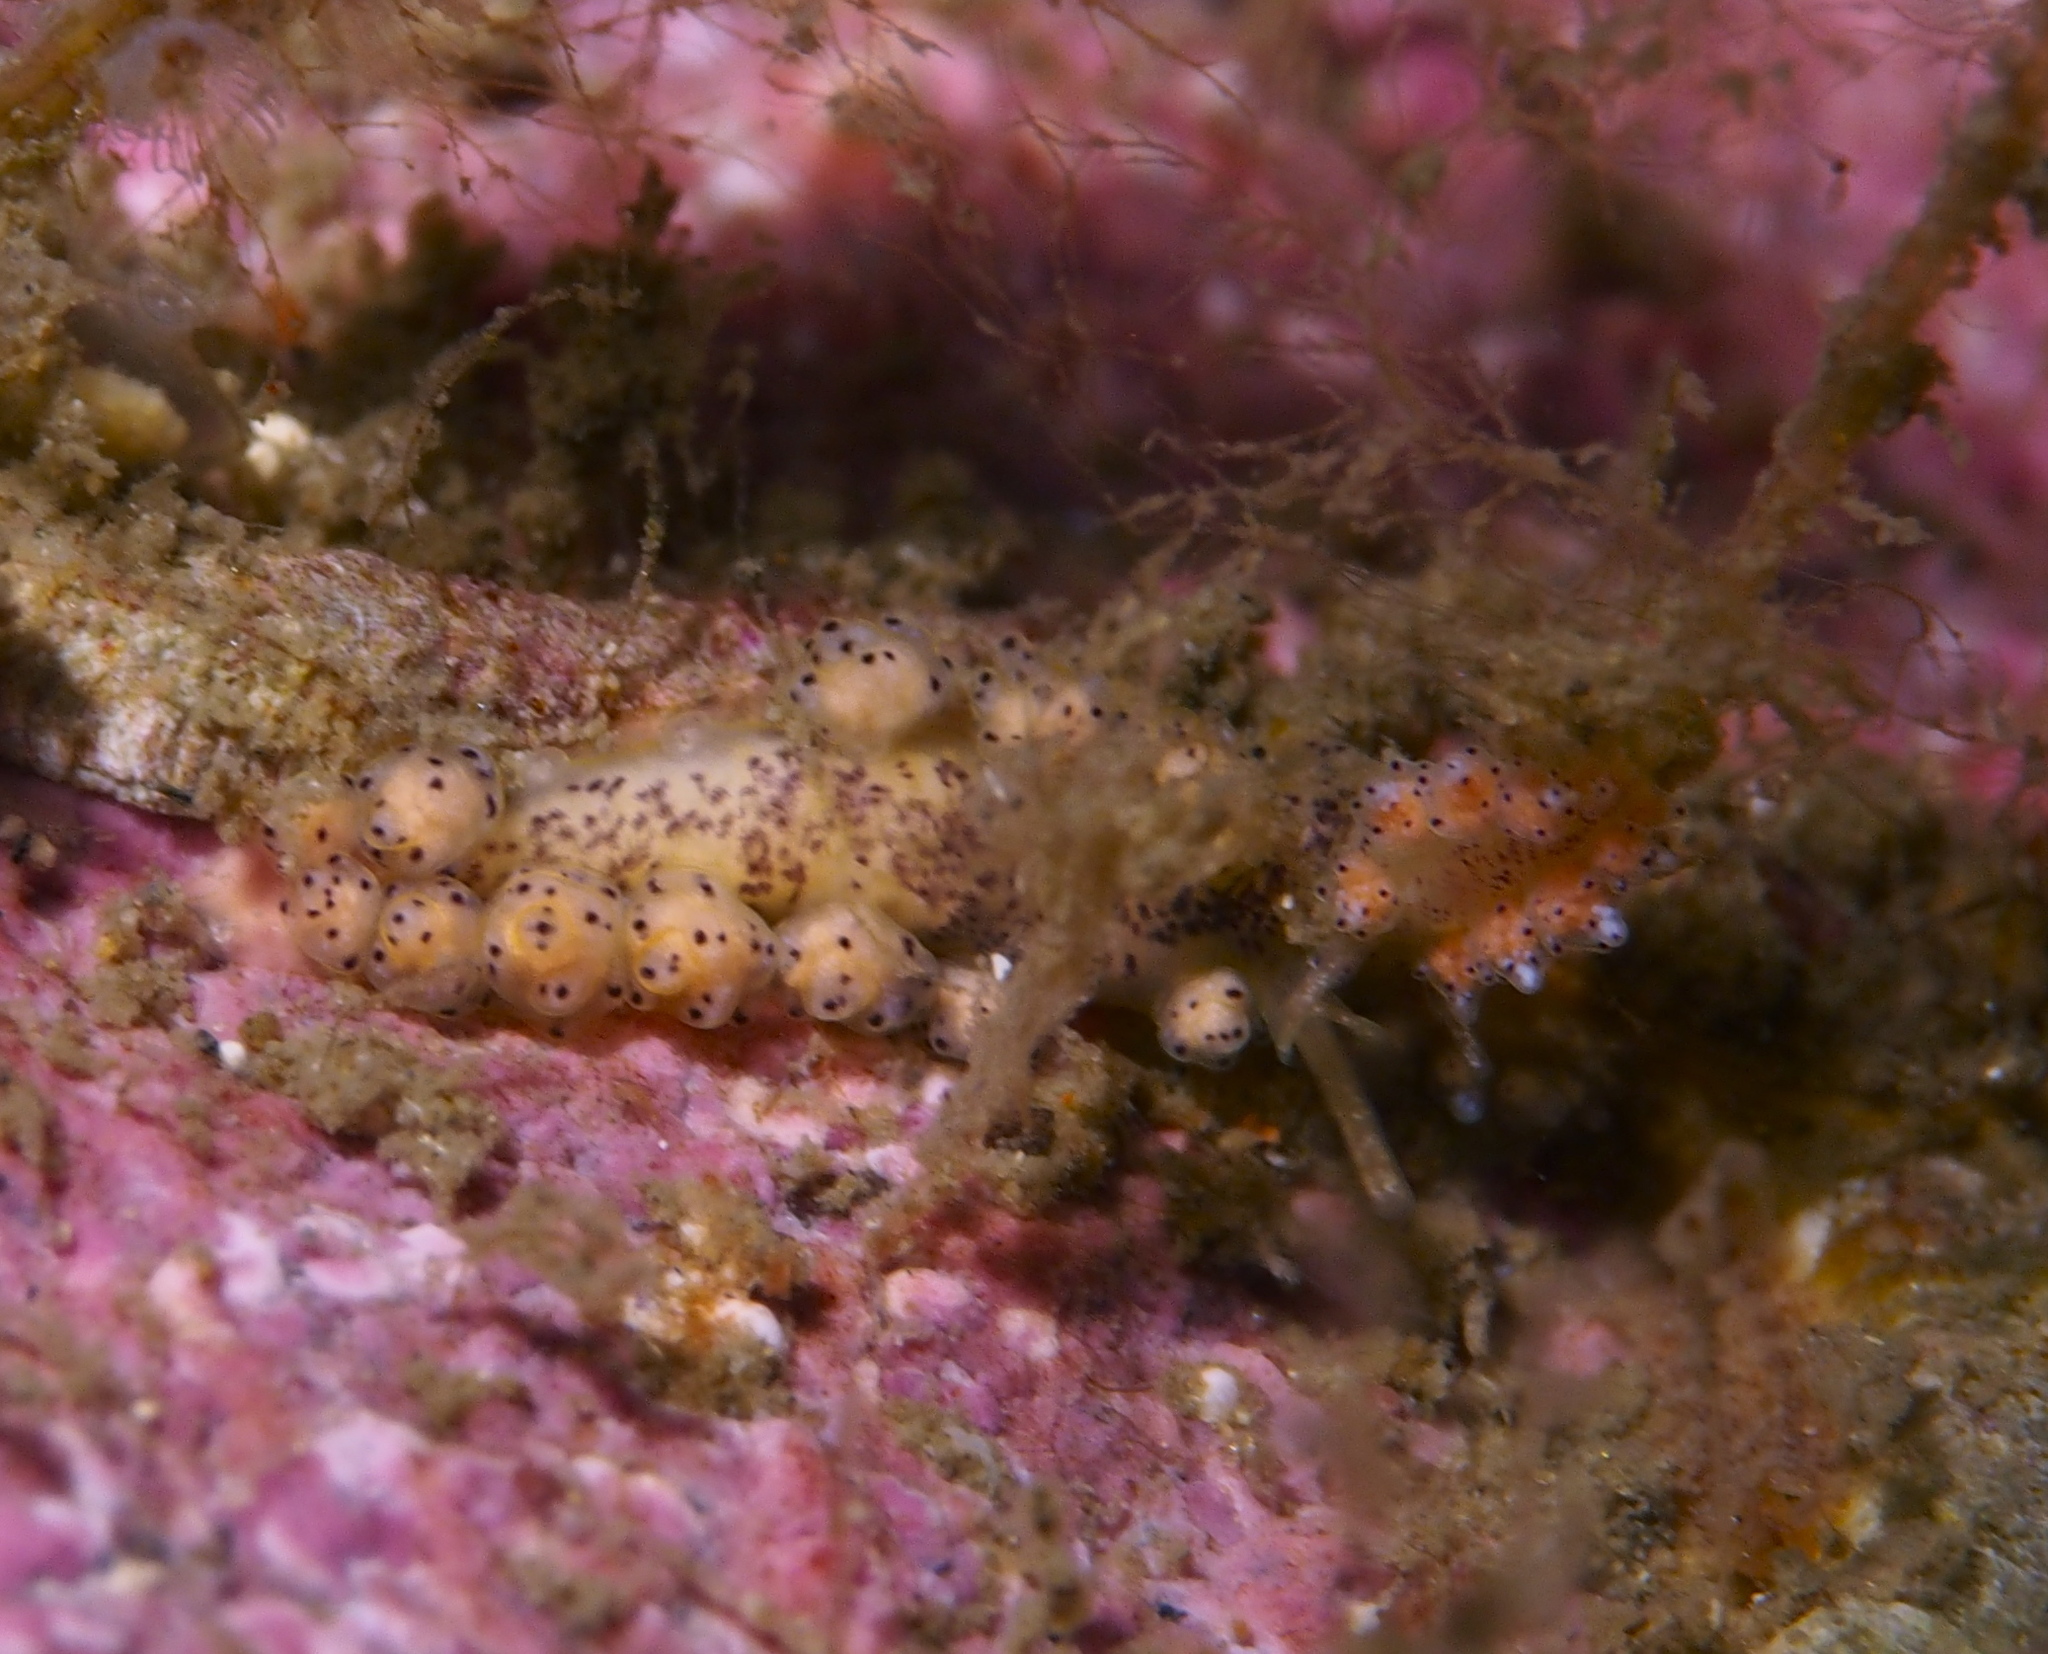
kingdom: Animalia
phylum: Mollusca
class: Gastropoda
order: Nudibranchia
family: Dotidae
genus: Doto
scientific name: Doto dunnei
